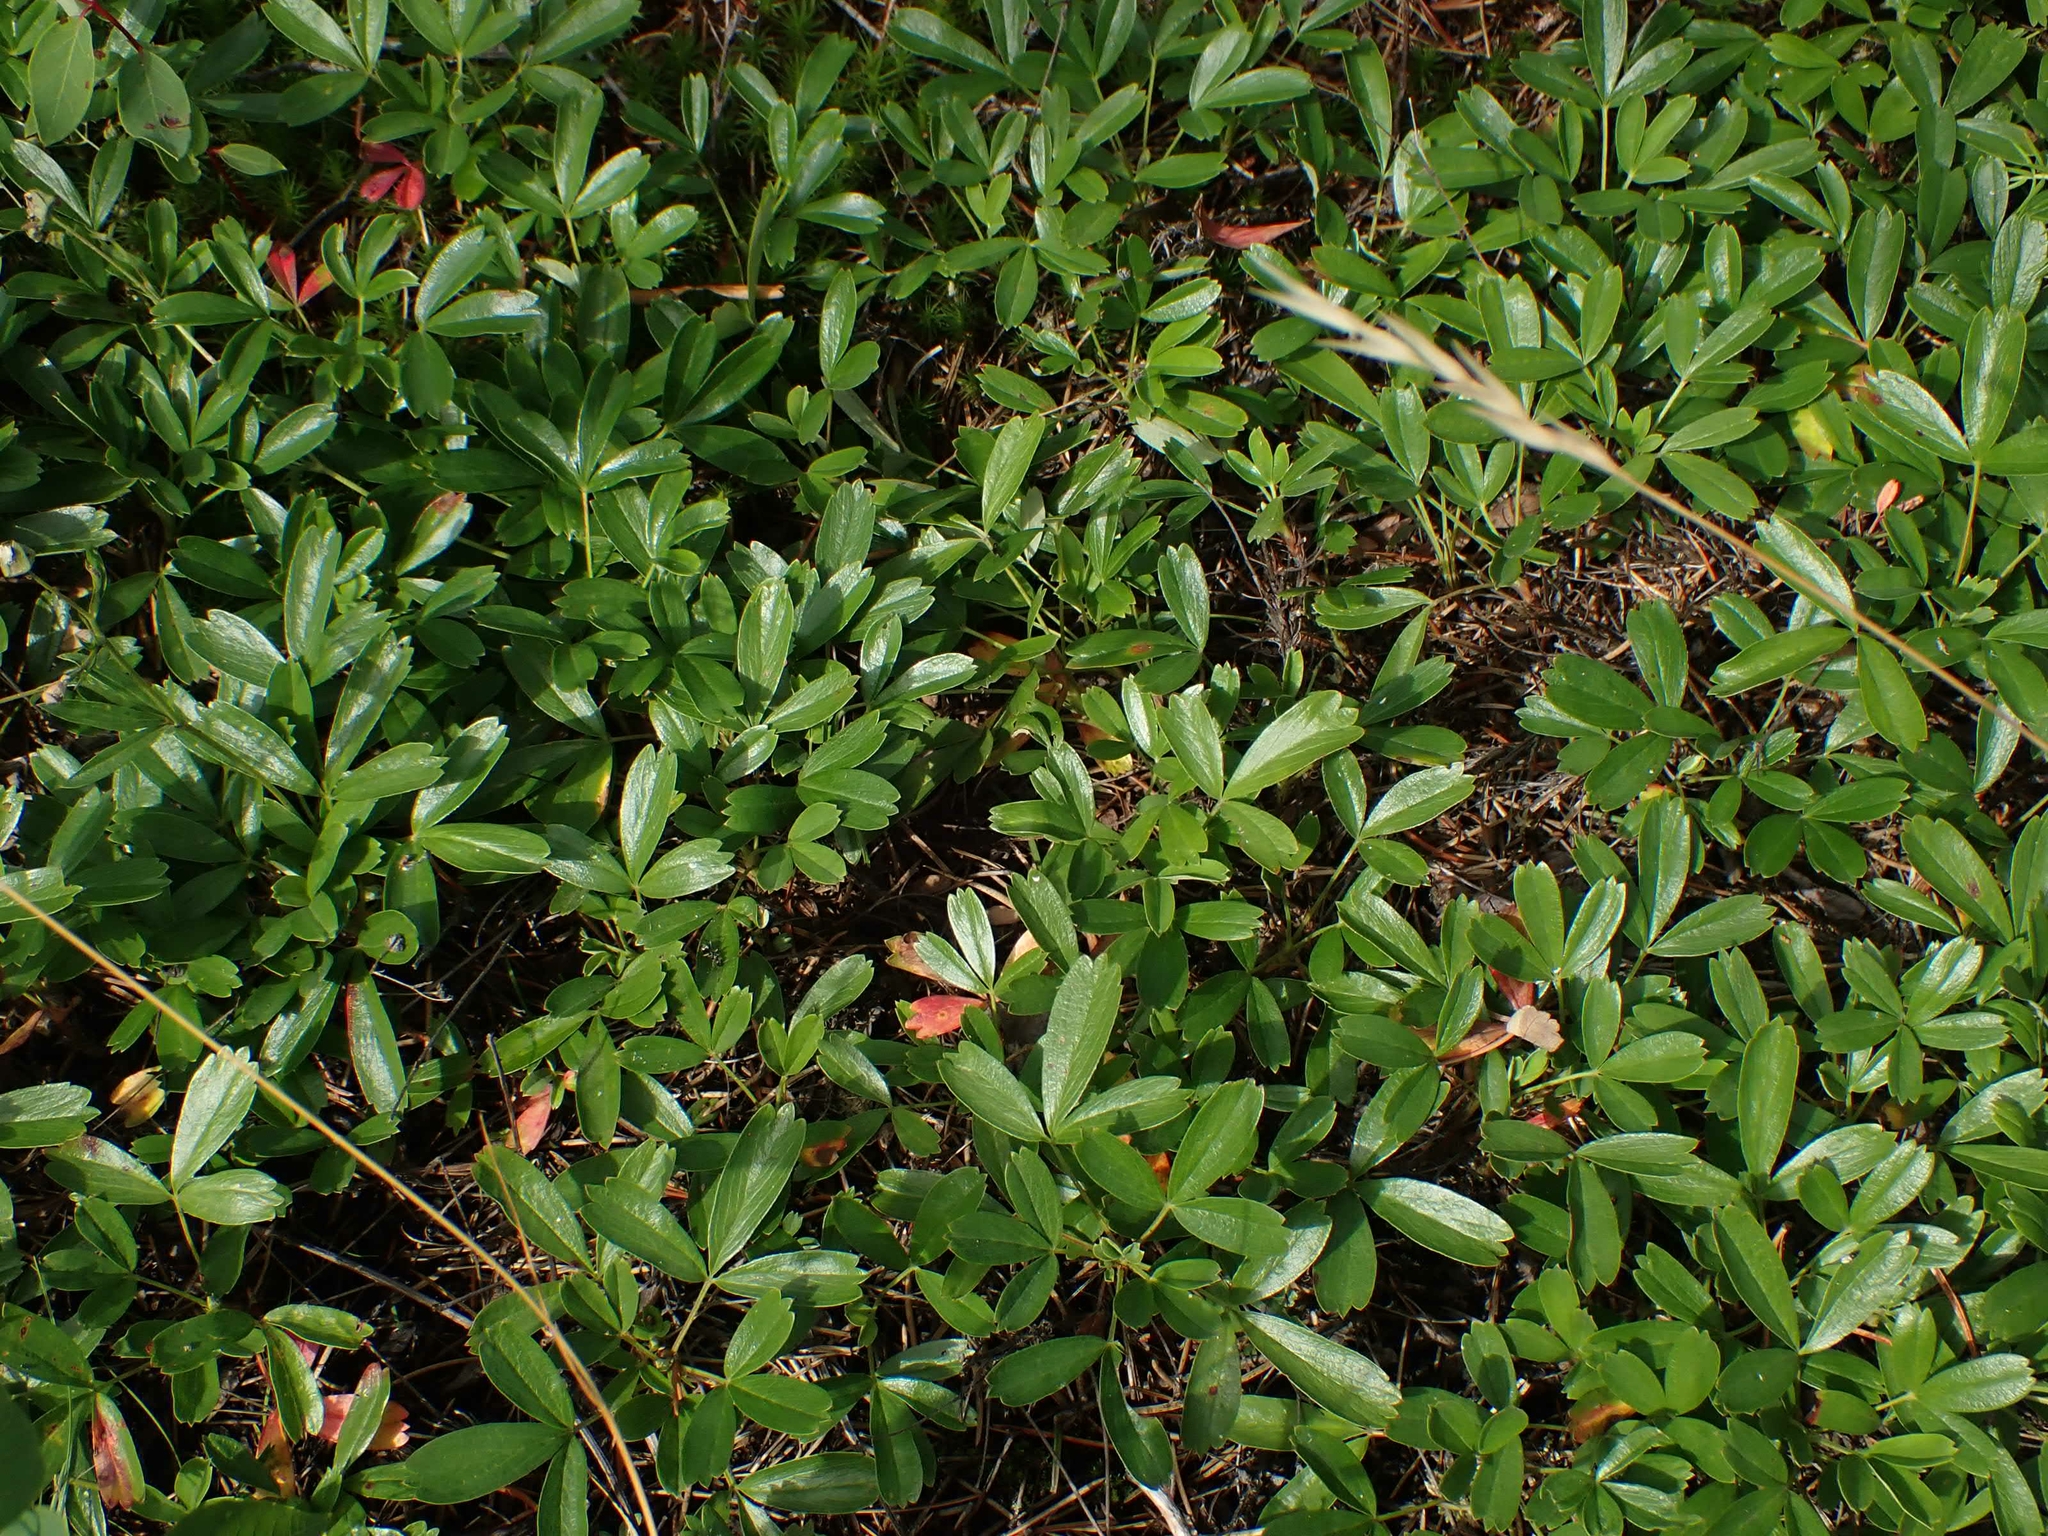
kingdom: Plantae
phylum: Tracheophyta
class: Magnoliopsida
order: Rosales
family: Rosaceae
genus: Sibbaldia
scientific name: Sibbaldia tridentata
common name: Three-toothed cinquefoil
